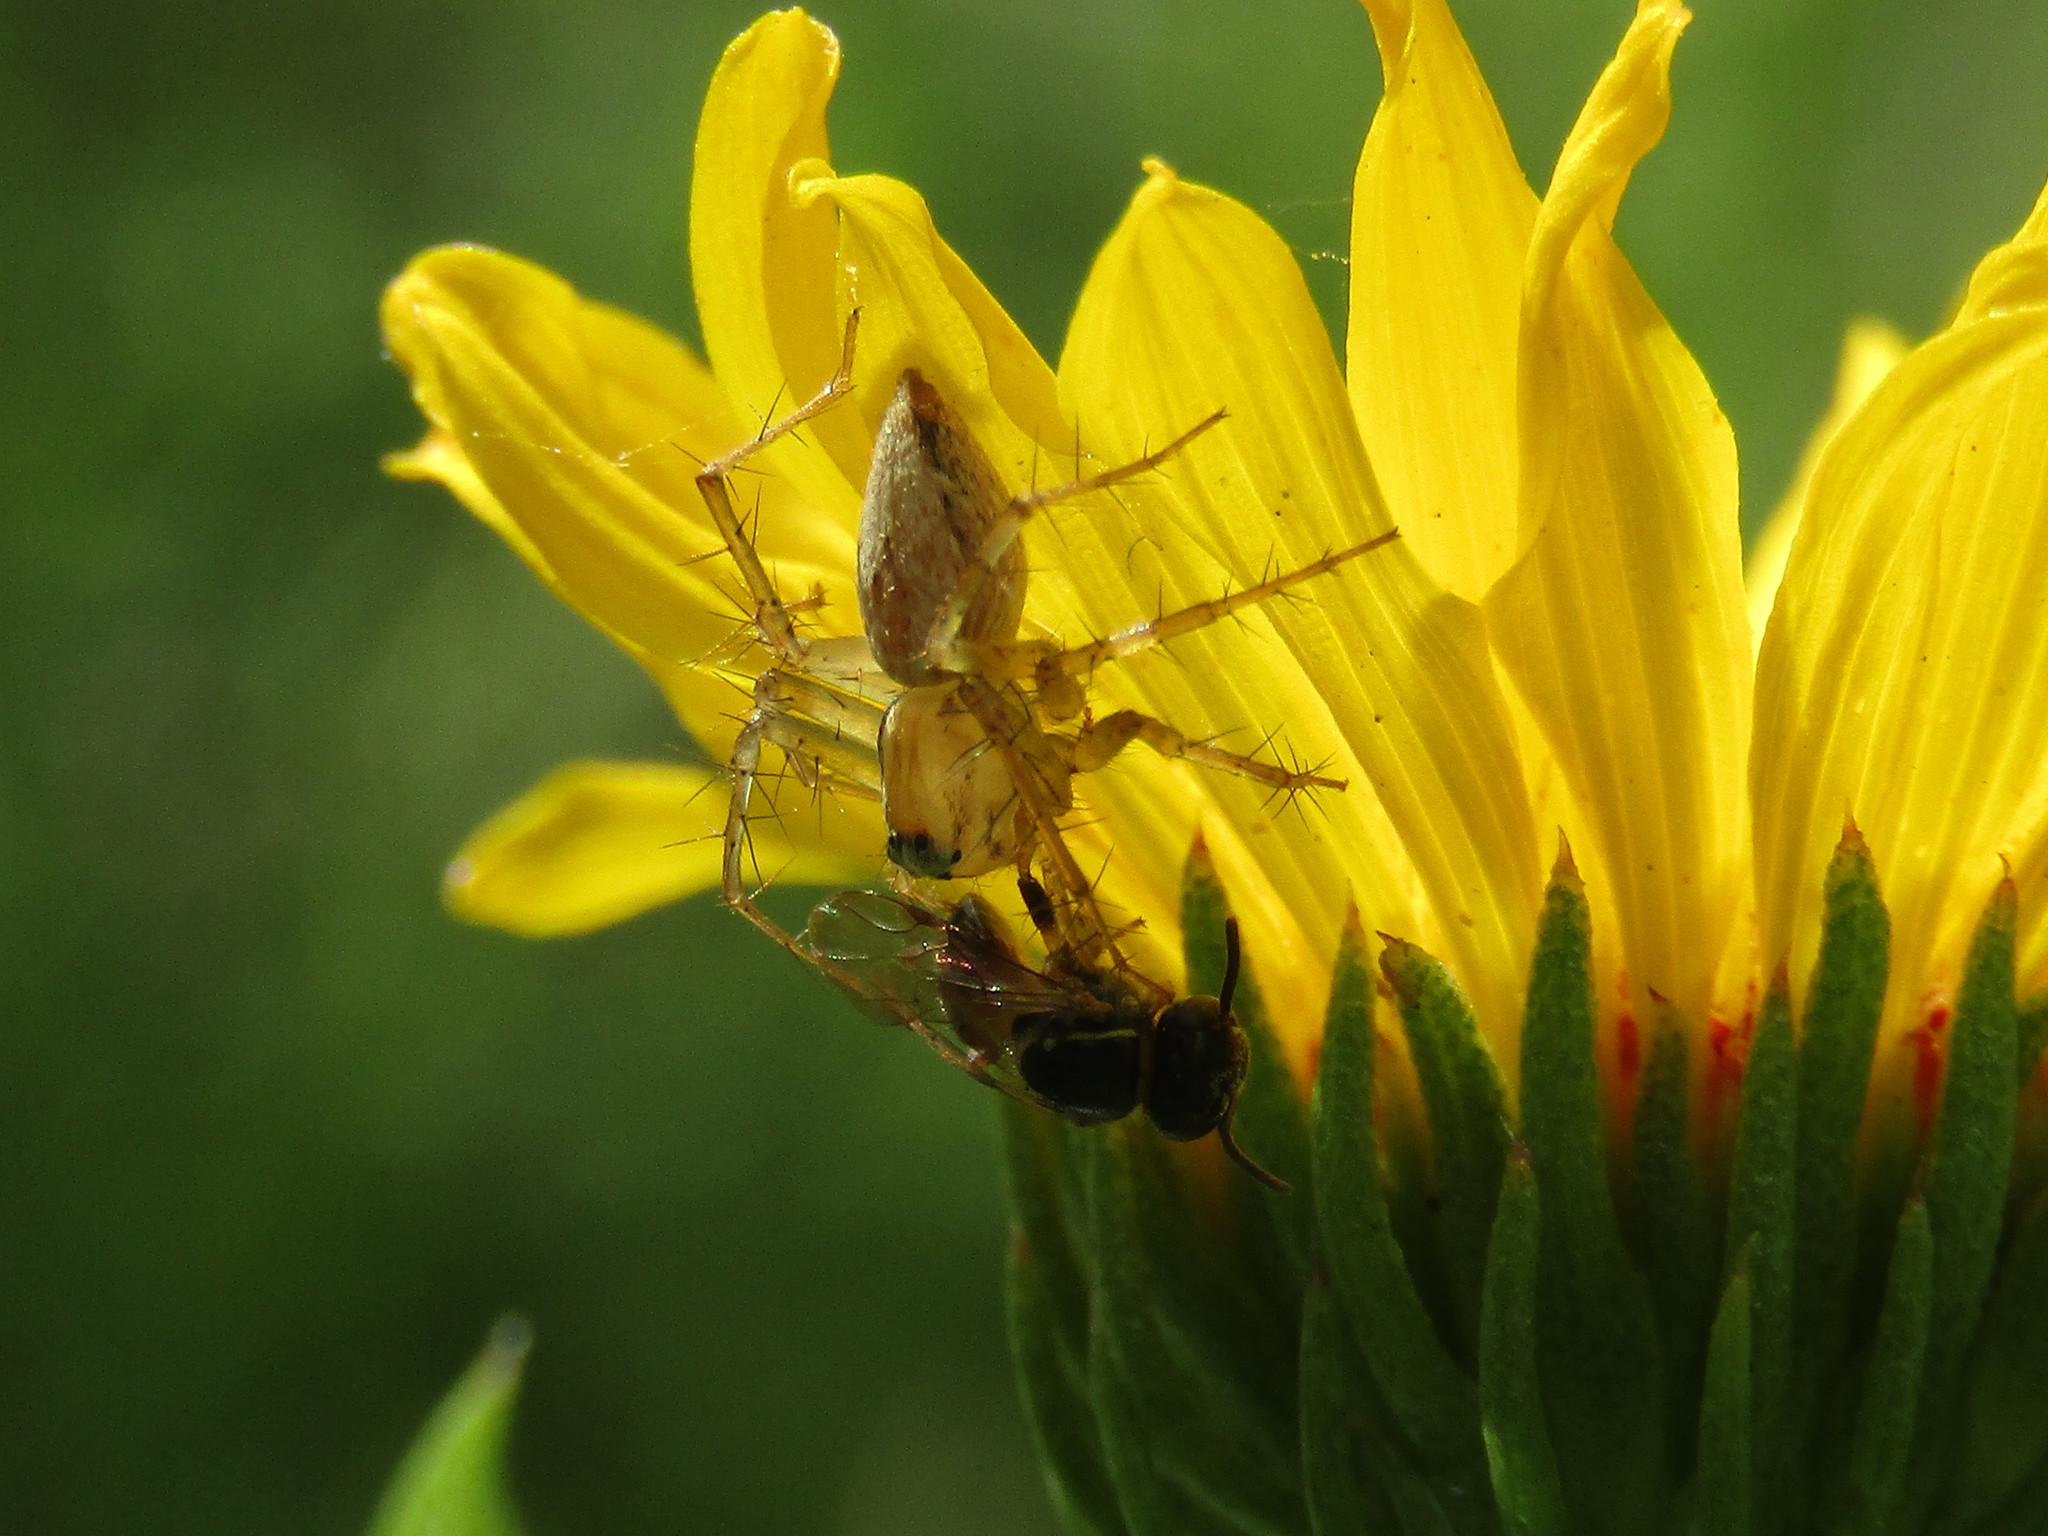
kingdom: Animalia
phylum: Arthropoda
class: Arachnida
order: Araneae
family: Oxyopidae
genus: Oxyopes
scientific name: Oxyopes salticus
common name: Lynx spiders
